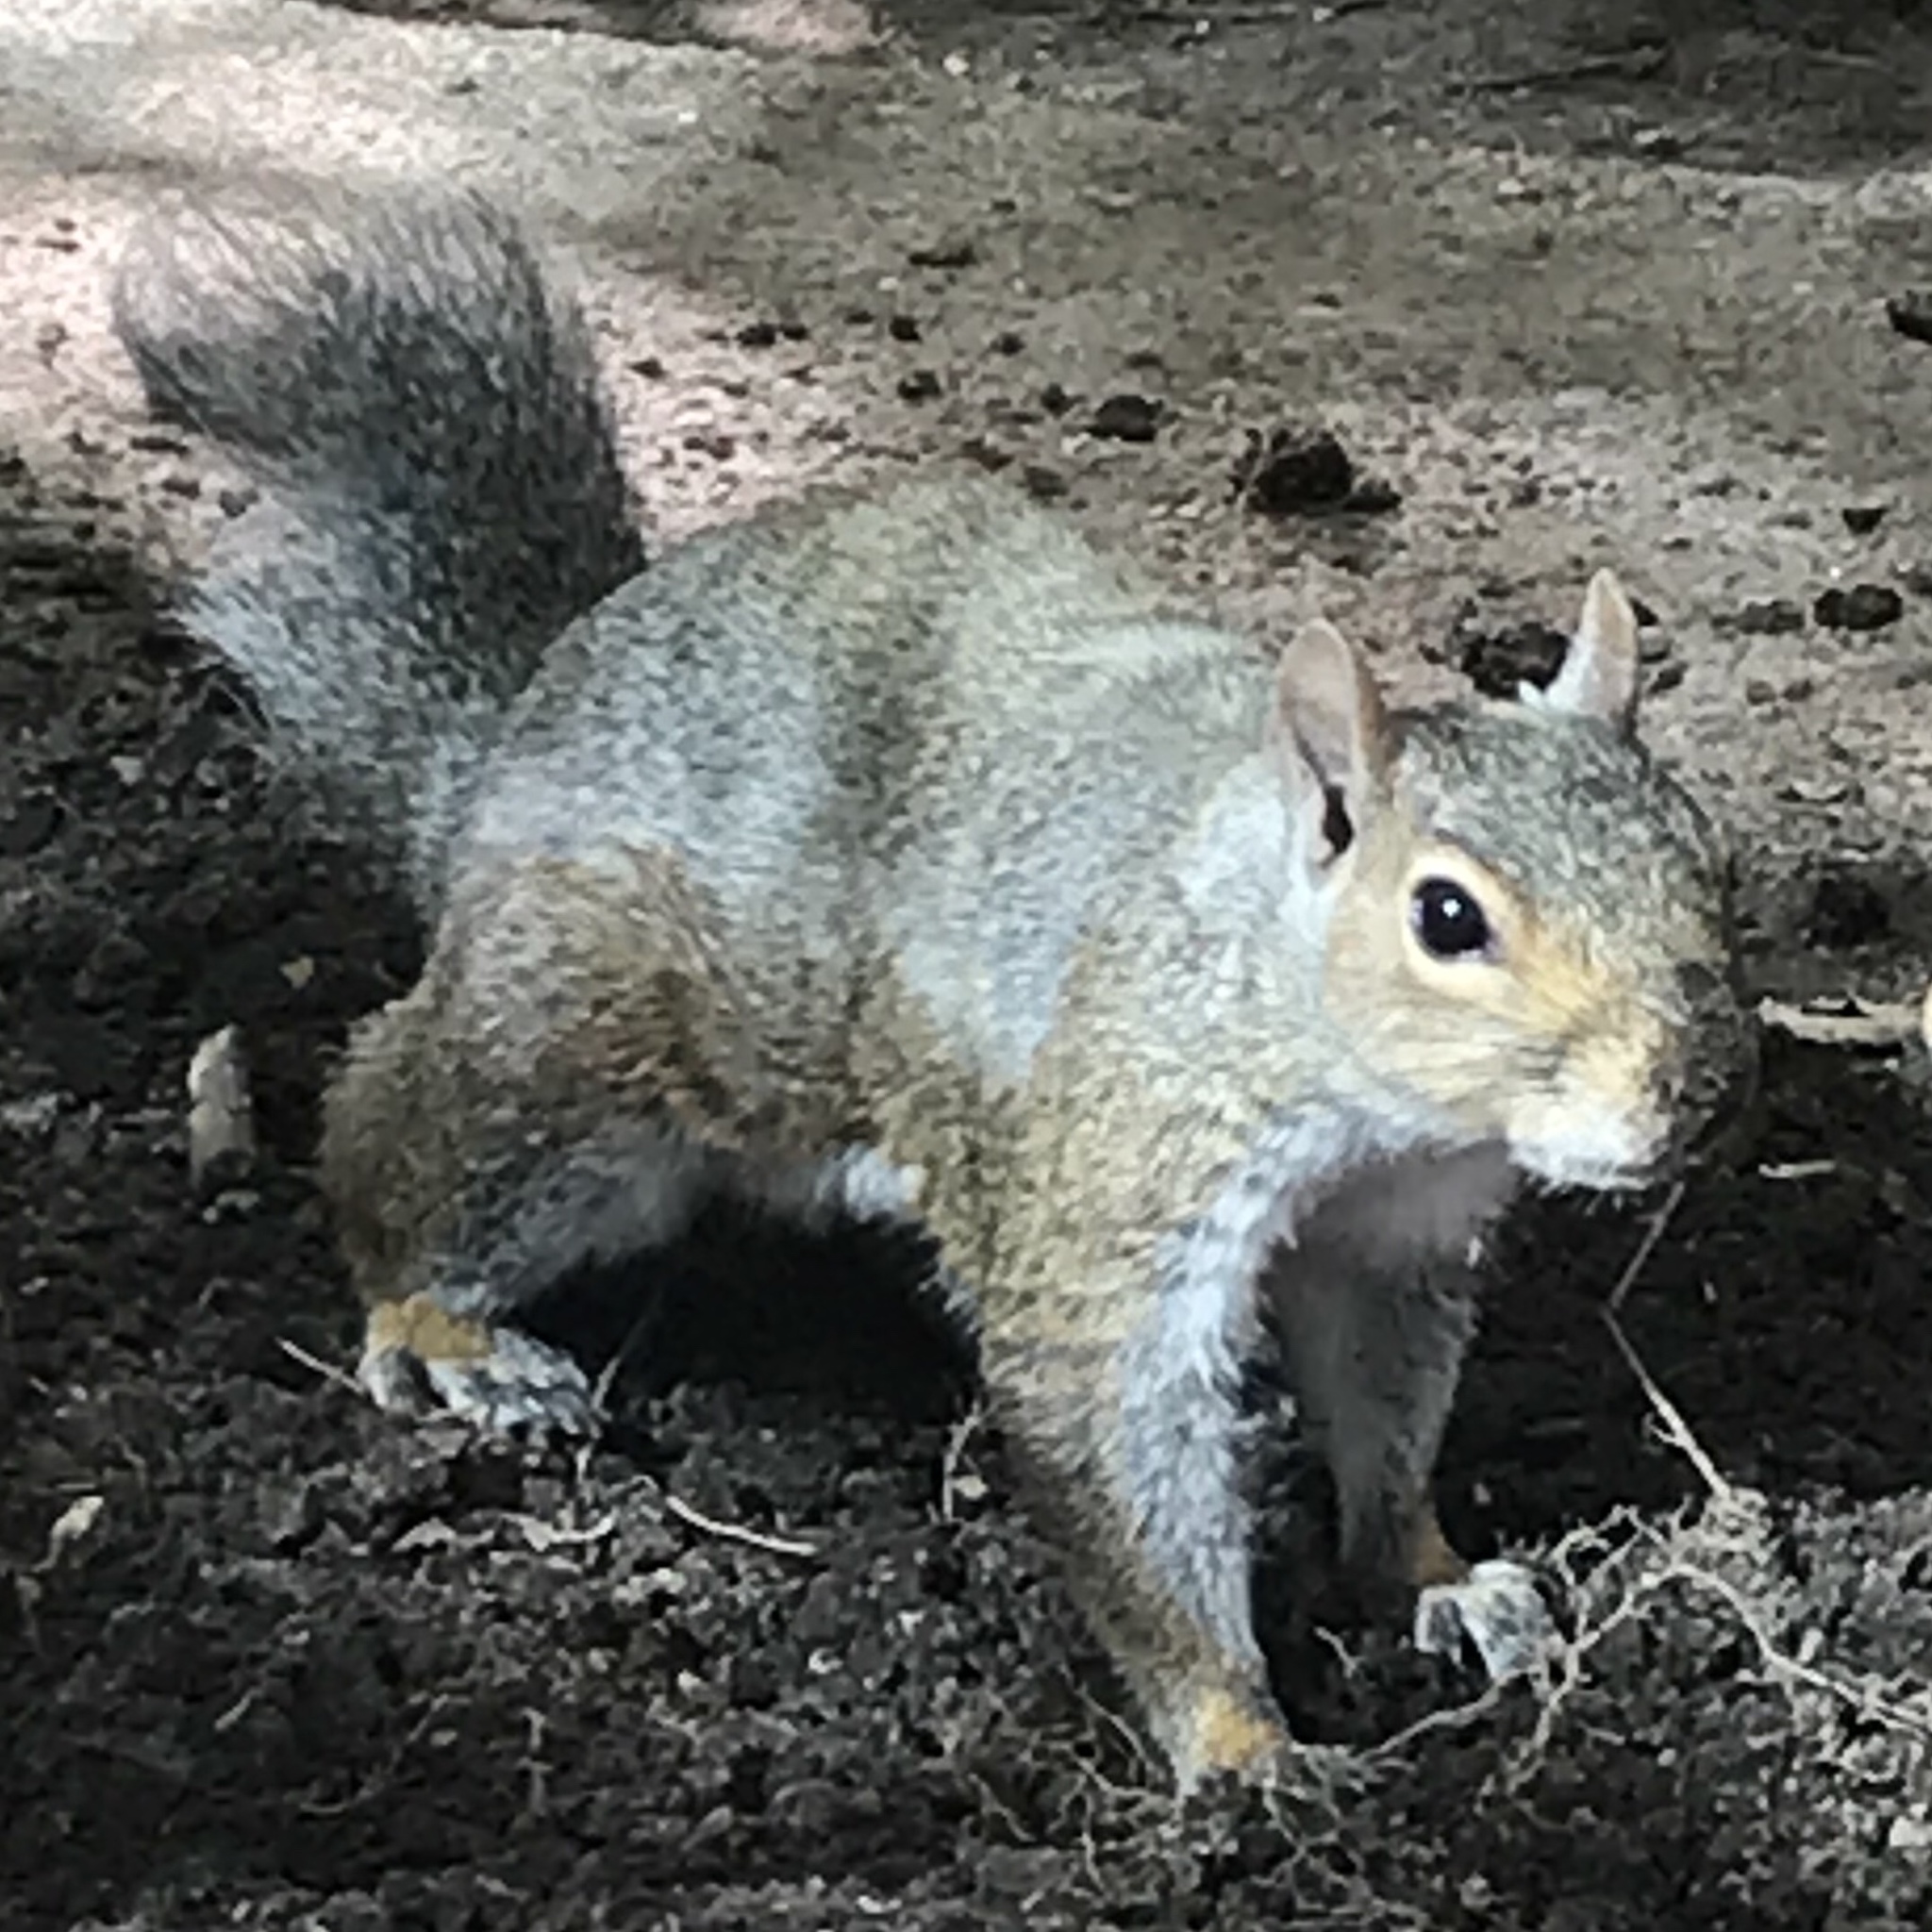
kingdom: Animalia
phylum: Chordata
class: Mammalia
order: Rodentia
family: Sciuridae
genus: Sciurus
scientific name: Sciurus carolinensis
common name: Eastern gray squirrel
